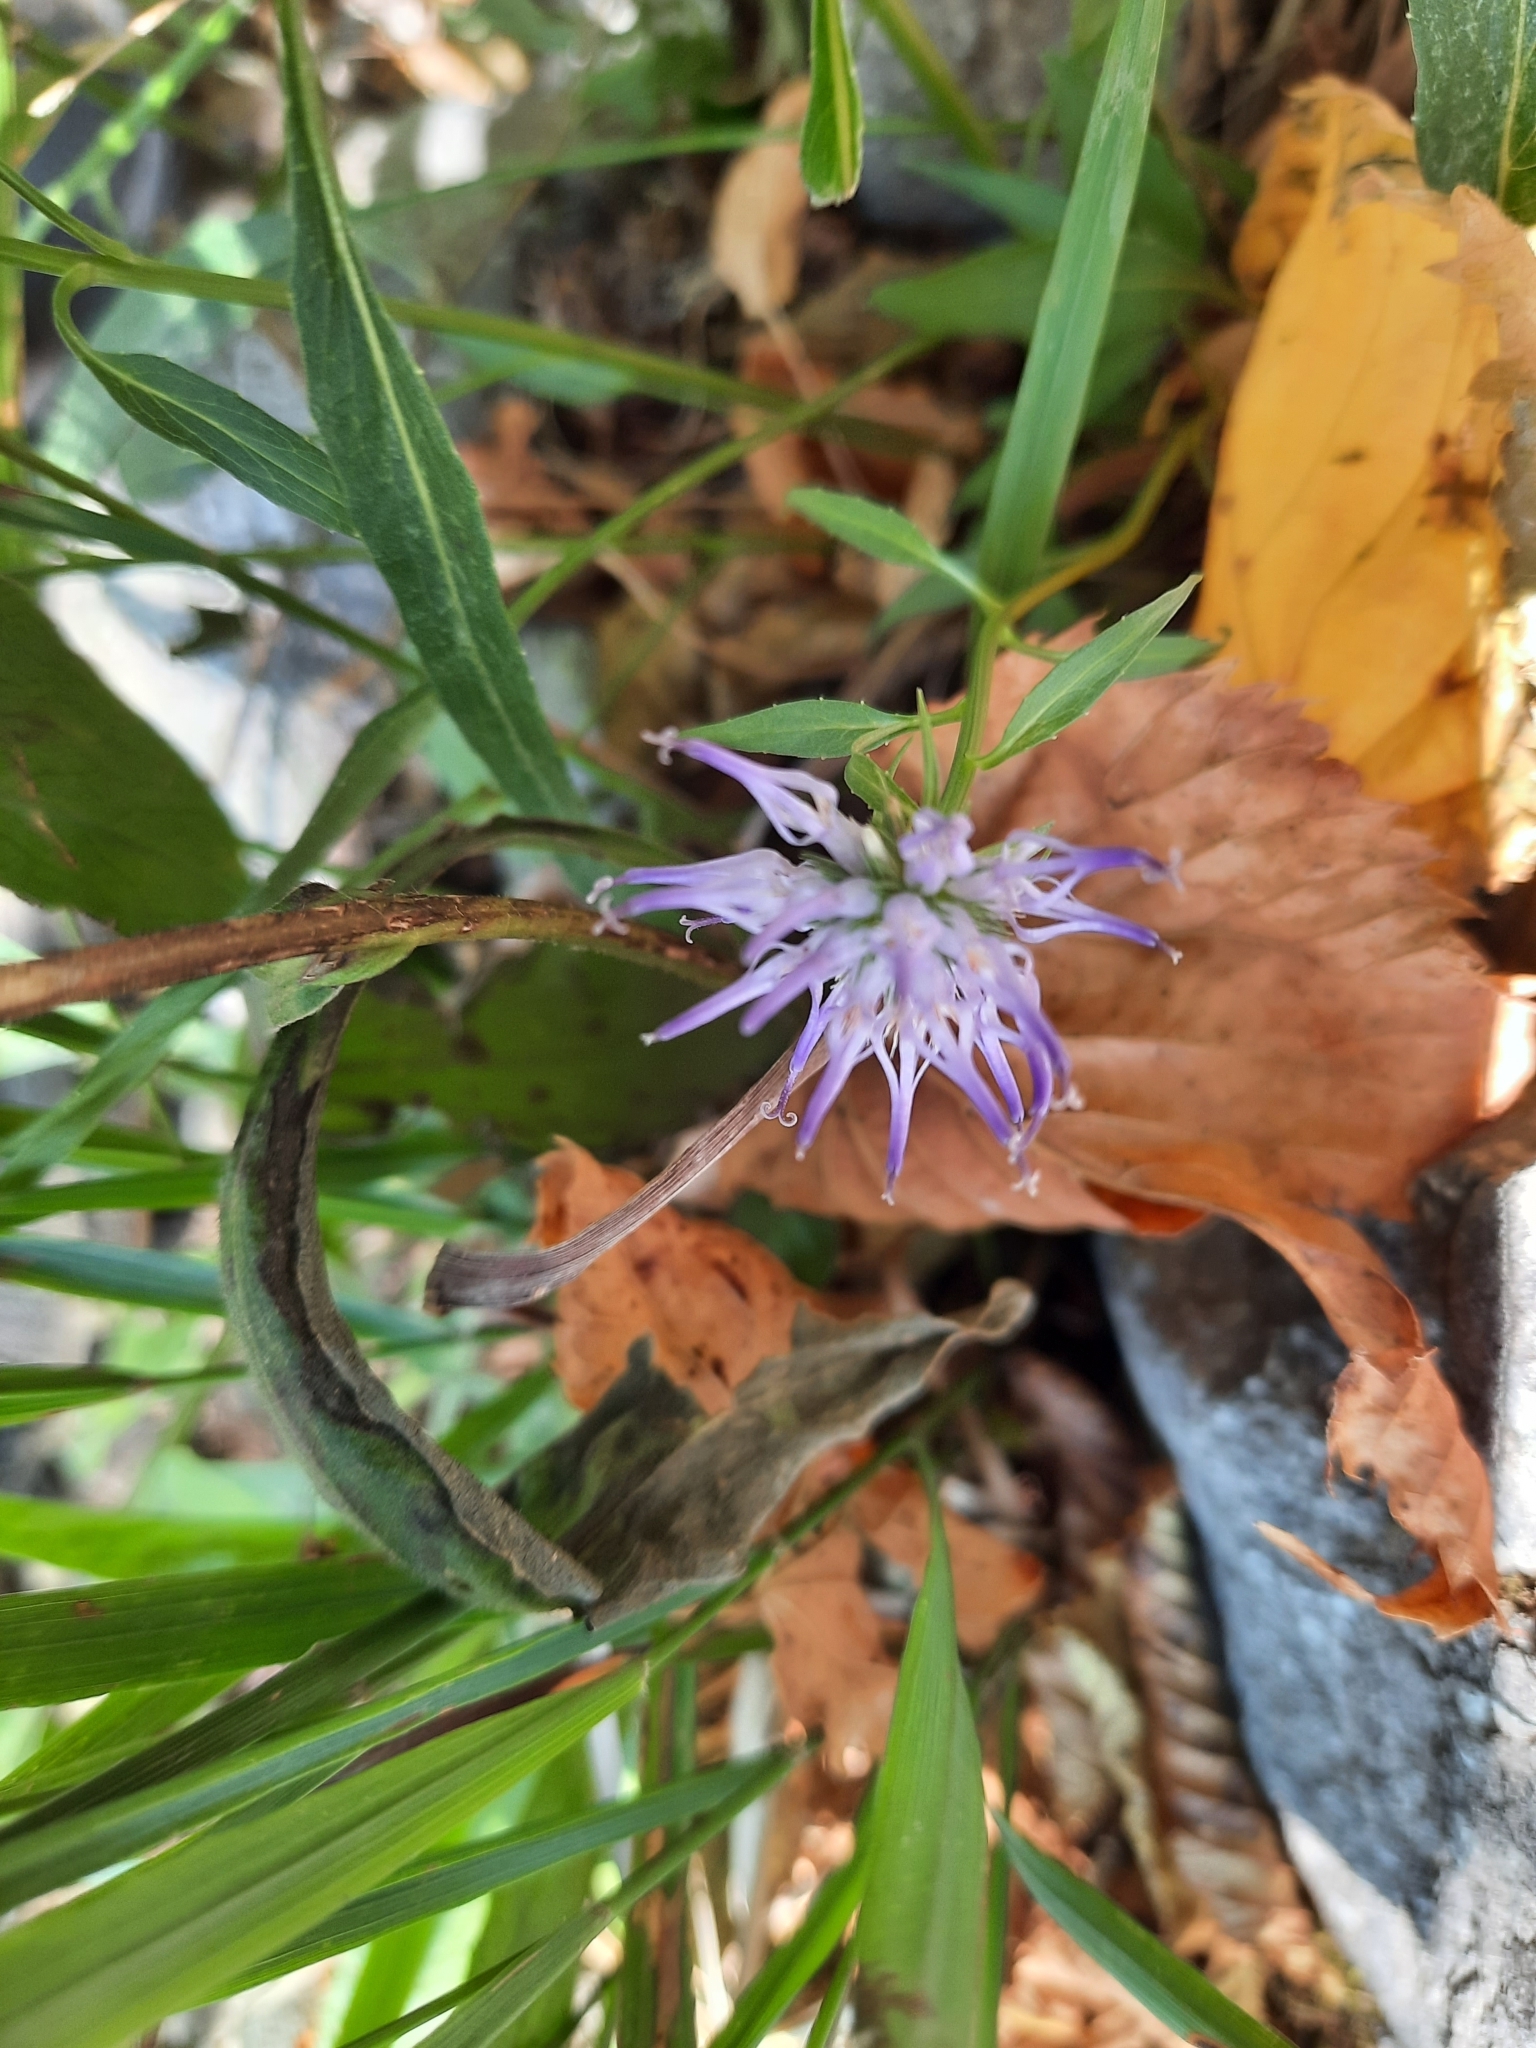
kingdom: Plantae
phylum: Tracheophyta
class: Magnoliopsida
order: Asterales
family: Campanulaceae
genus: Phyteuma
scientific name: Phyteuma scheuchzeri
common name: Oxford rampion
